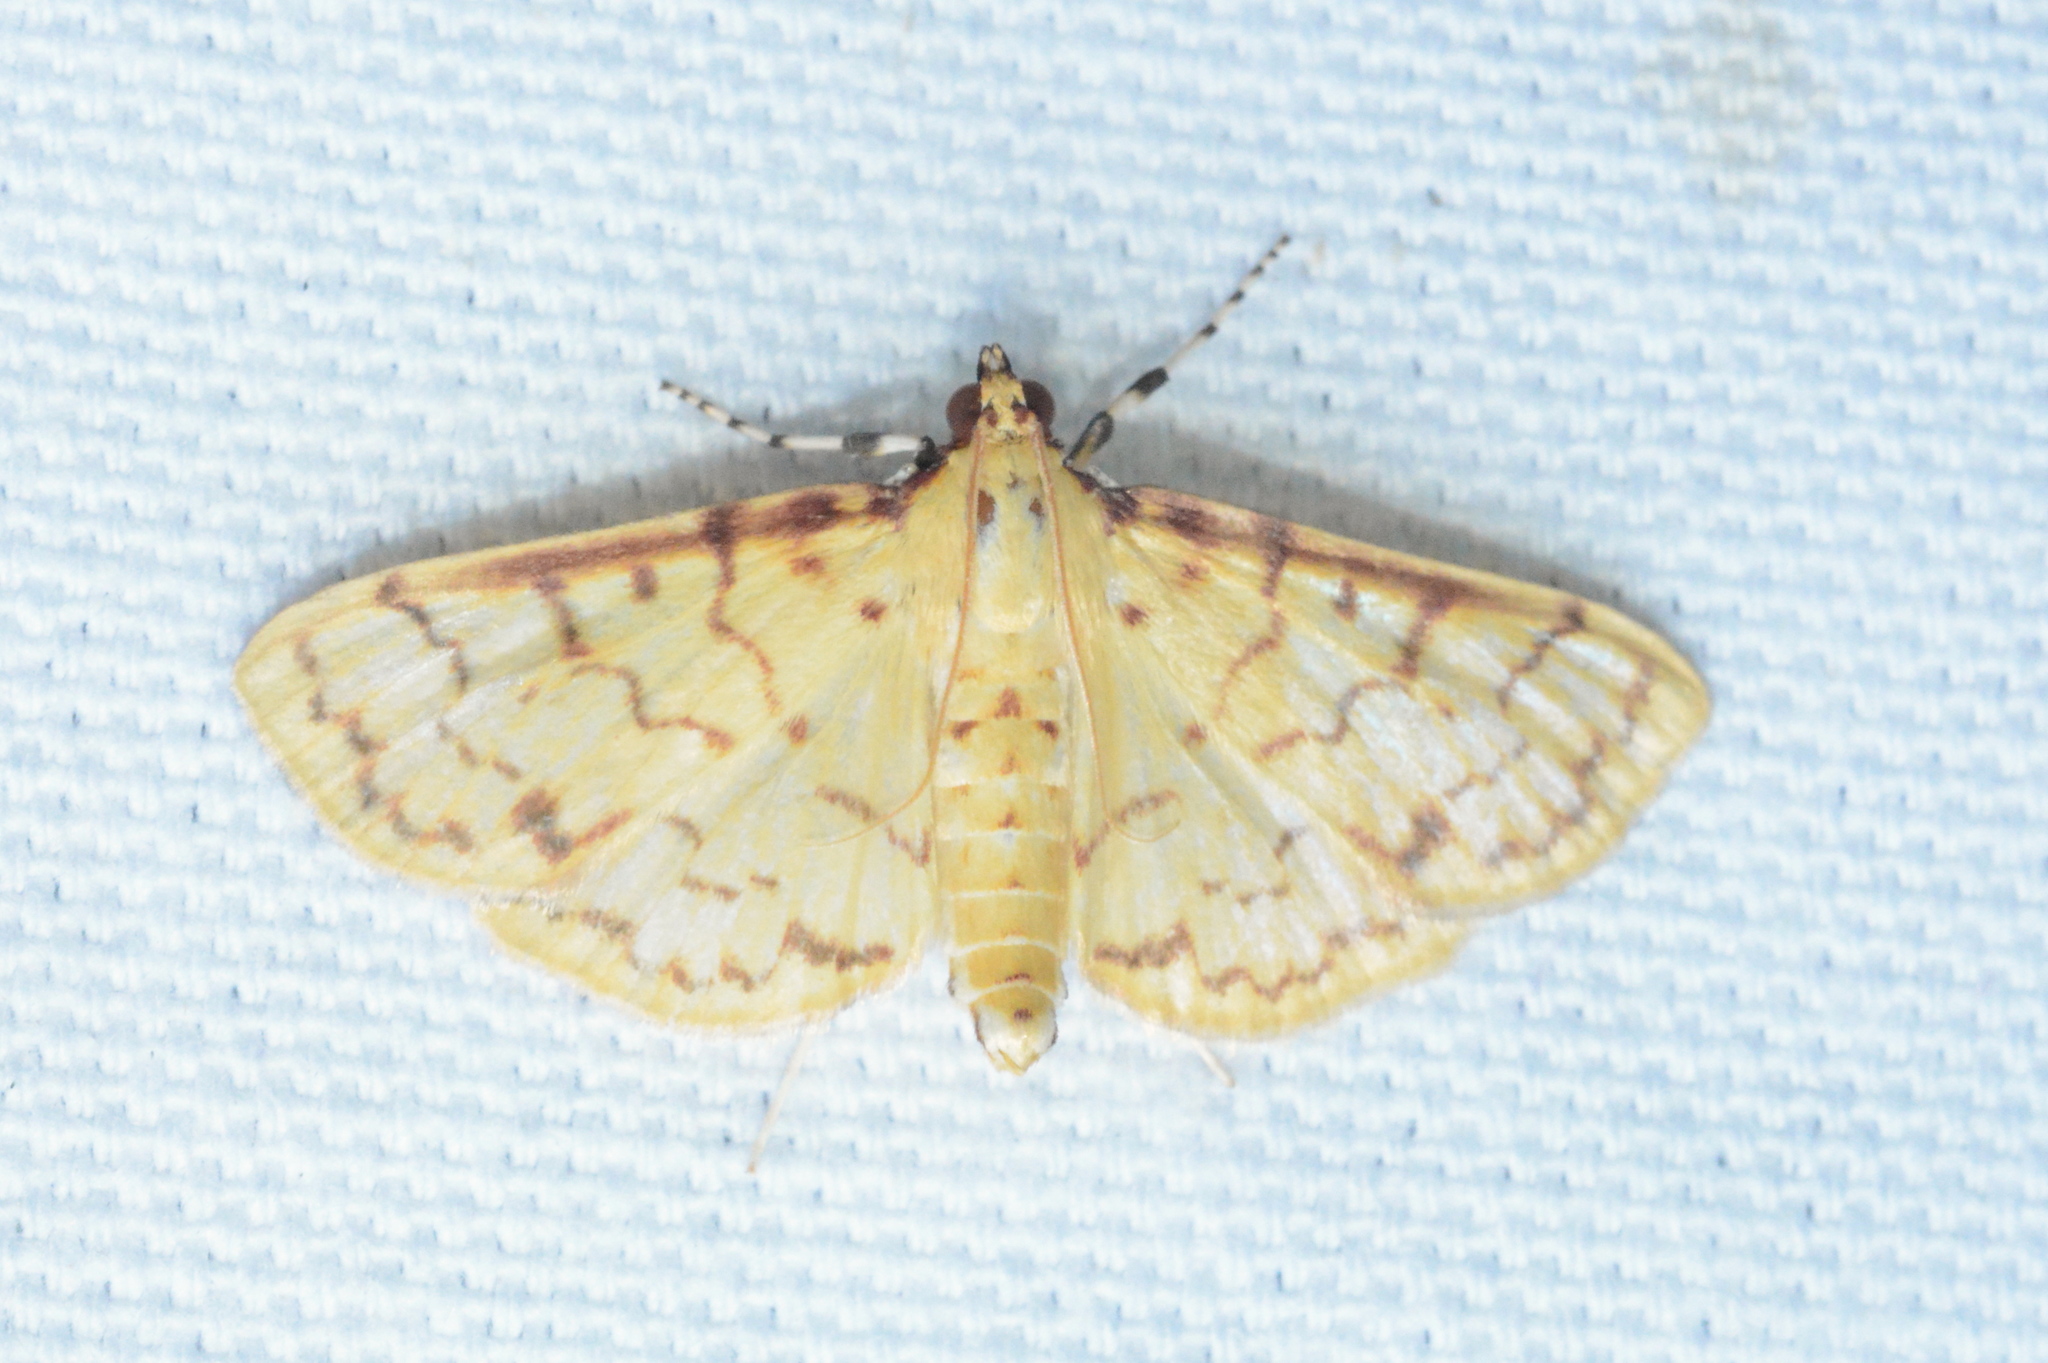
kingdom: Animalia
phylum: Arthropoda
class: Insecta
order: Lepidoptera
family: Crambidae
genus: Polygrammodes
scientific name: Polygrammodes flavidalis
